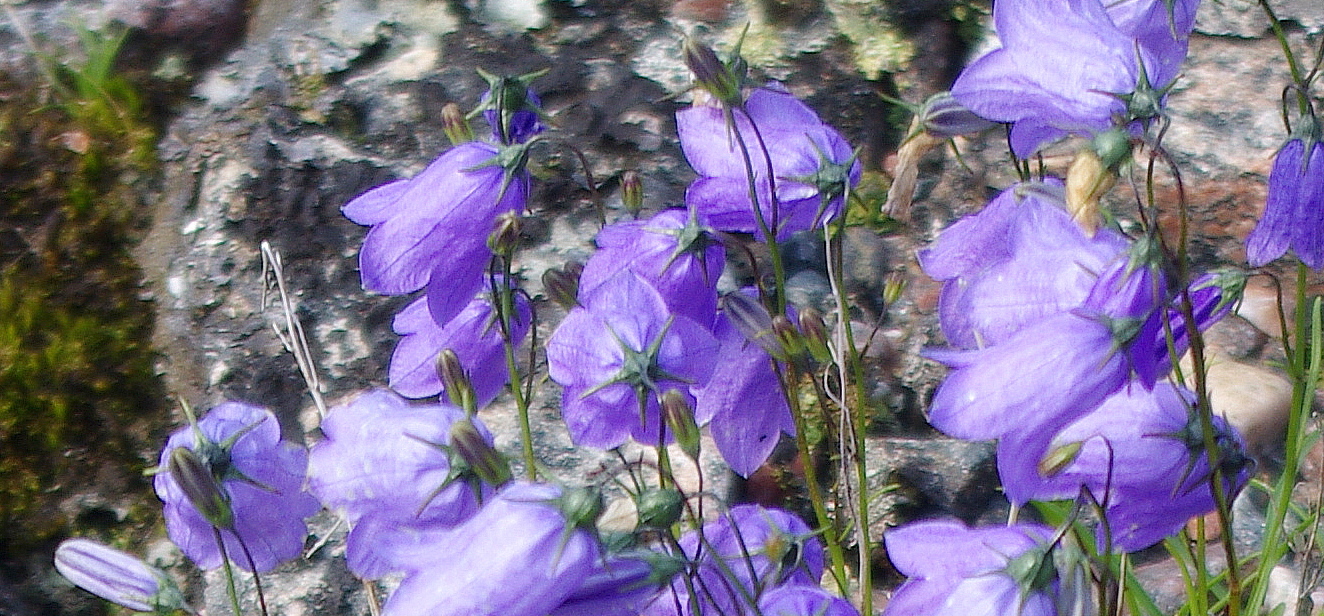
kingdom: Plantae
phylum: Tracheophyta
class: Magnoliopsida
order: Asterales
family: Campanulaceae
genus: Campanula
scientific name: Campanula rotundifolia
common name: Harebell
